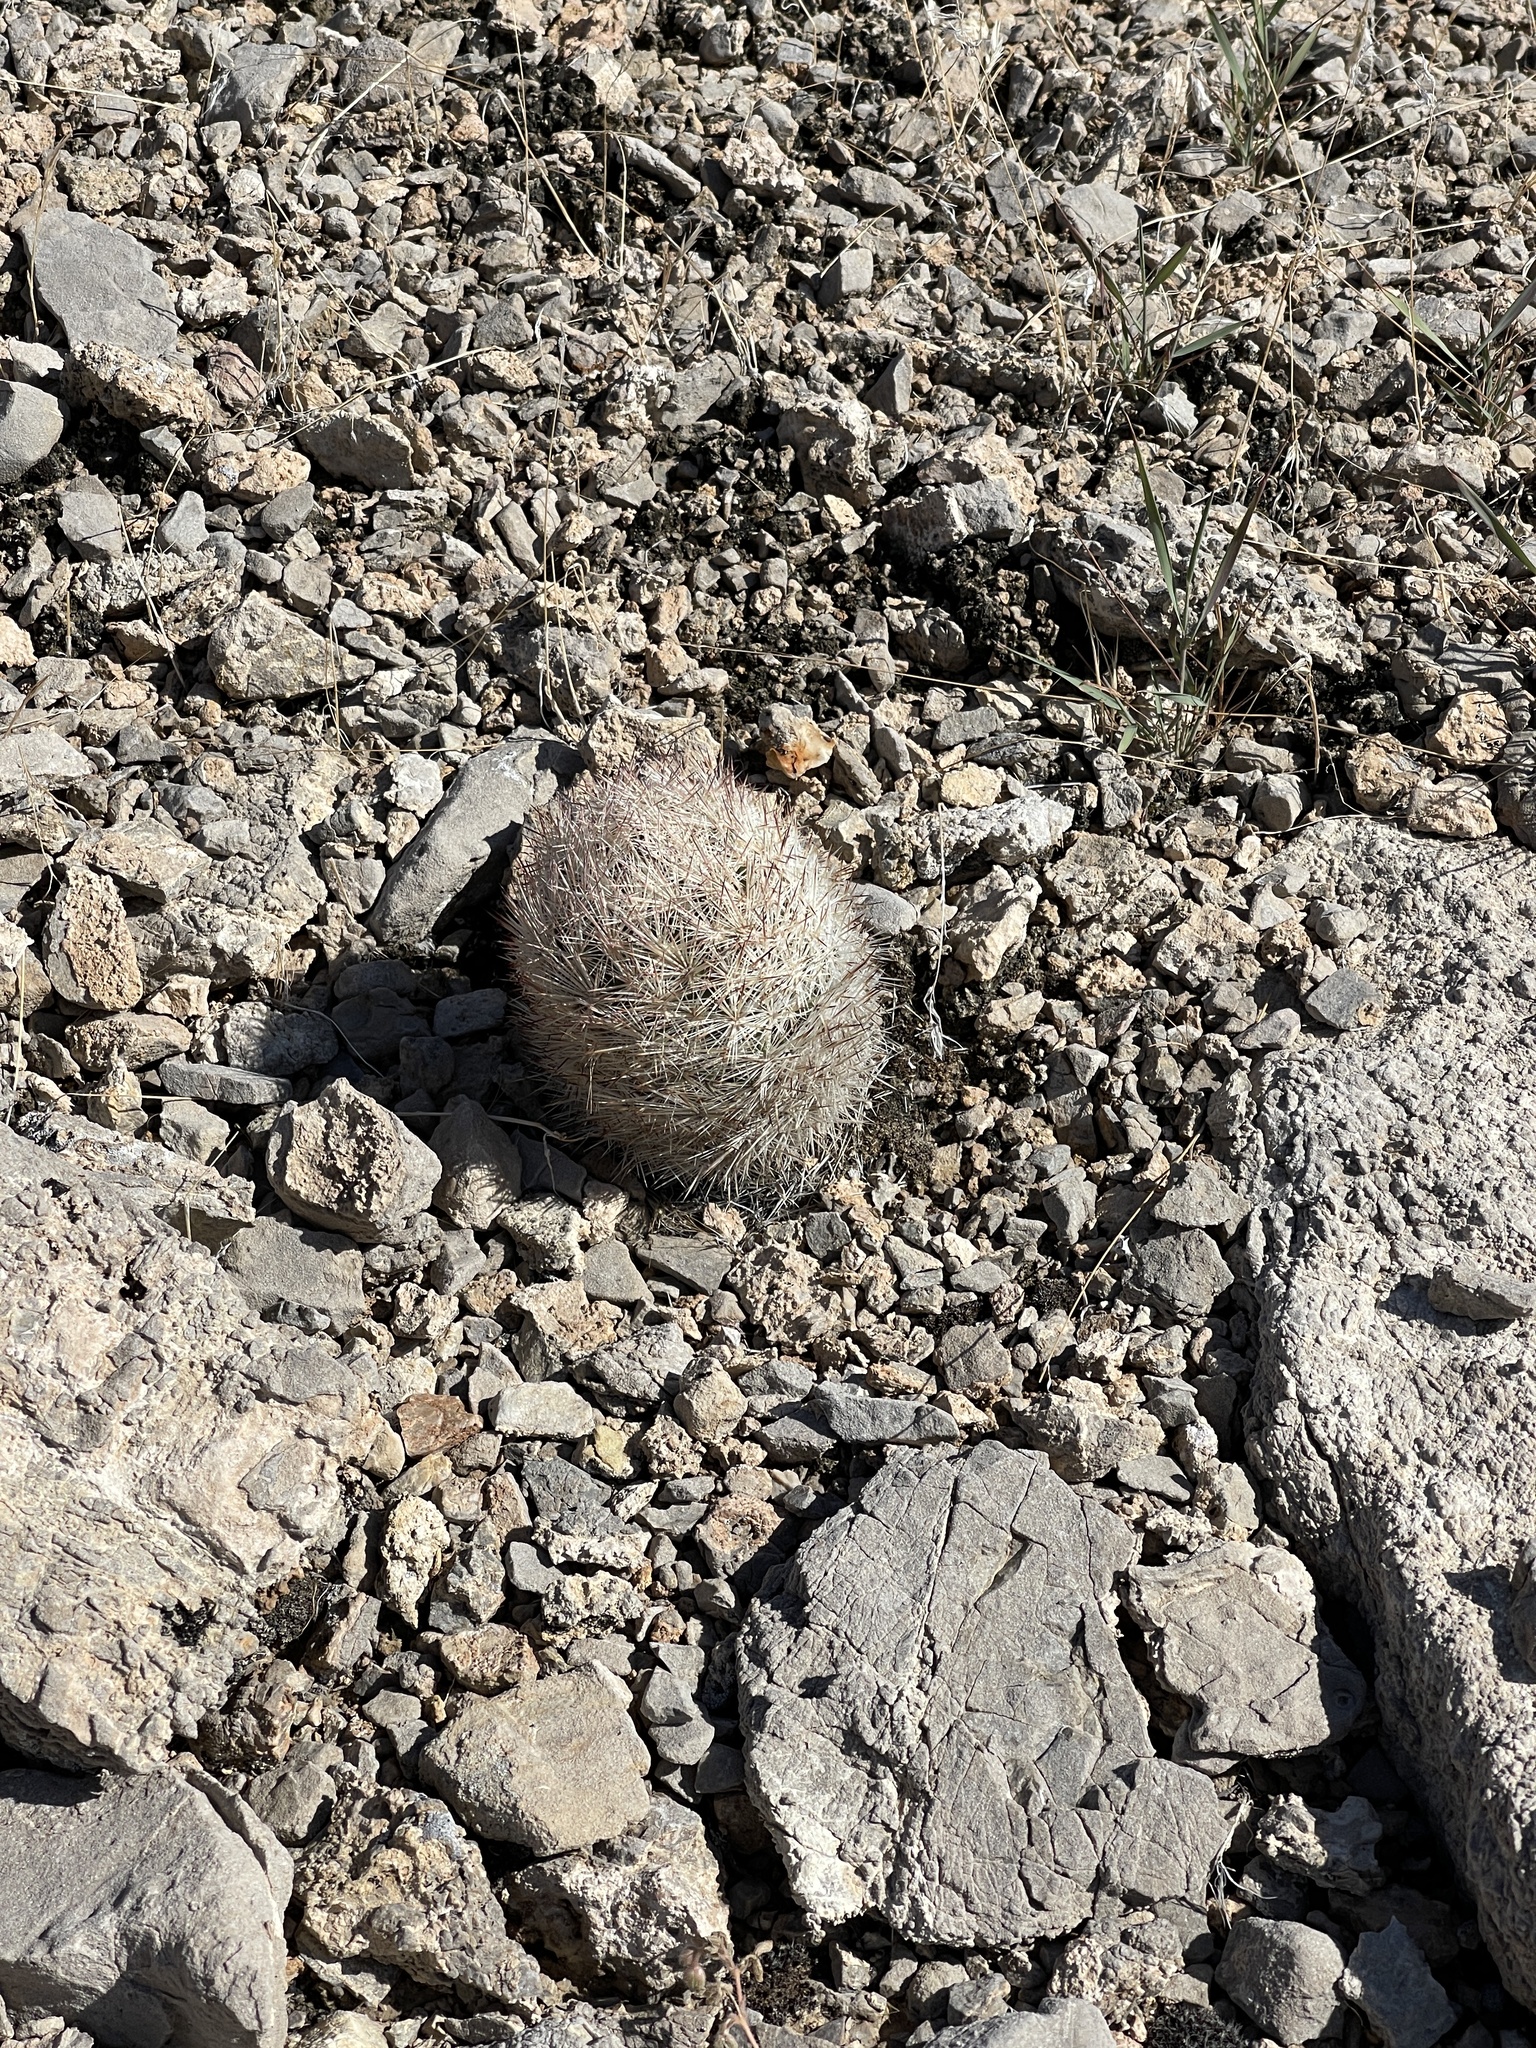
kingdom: Plantae
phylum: Tracheophyta
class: Magnoliopsida
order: Caryophyllales
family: Cactaceae
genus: Pelecyphora
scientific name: Pelecyphora dasyacantha
